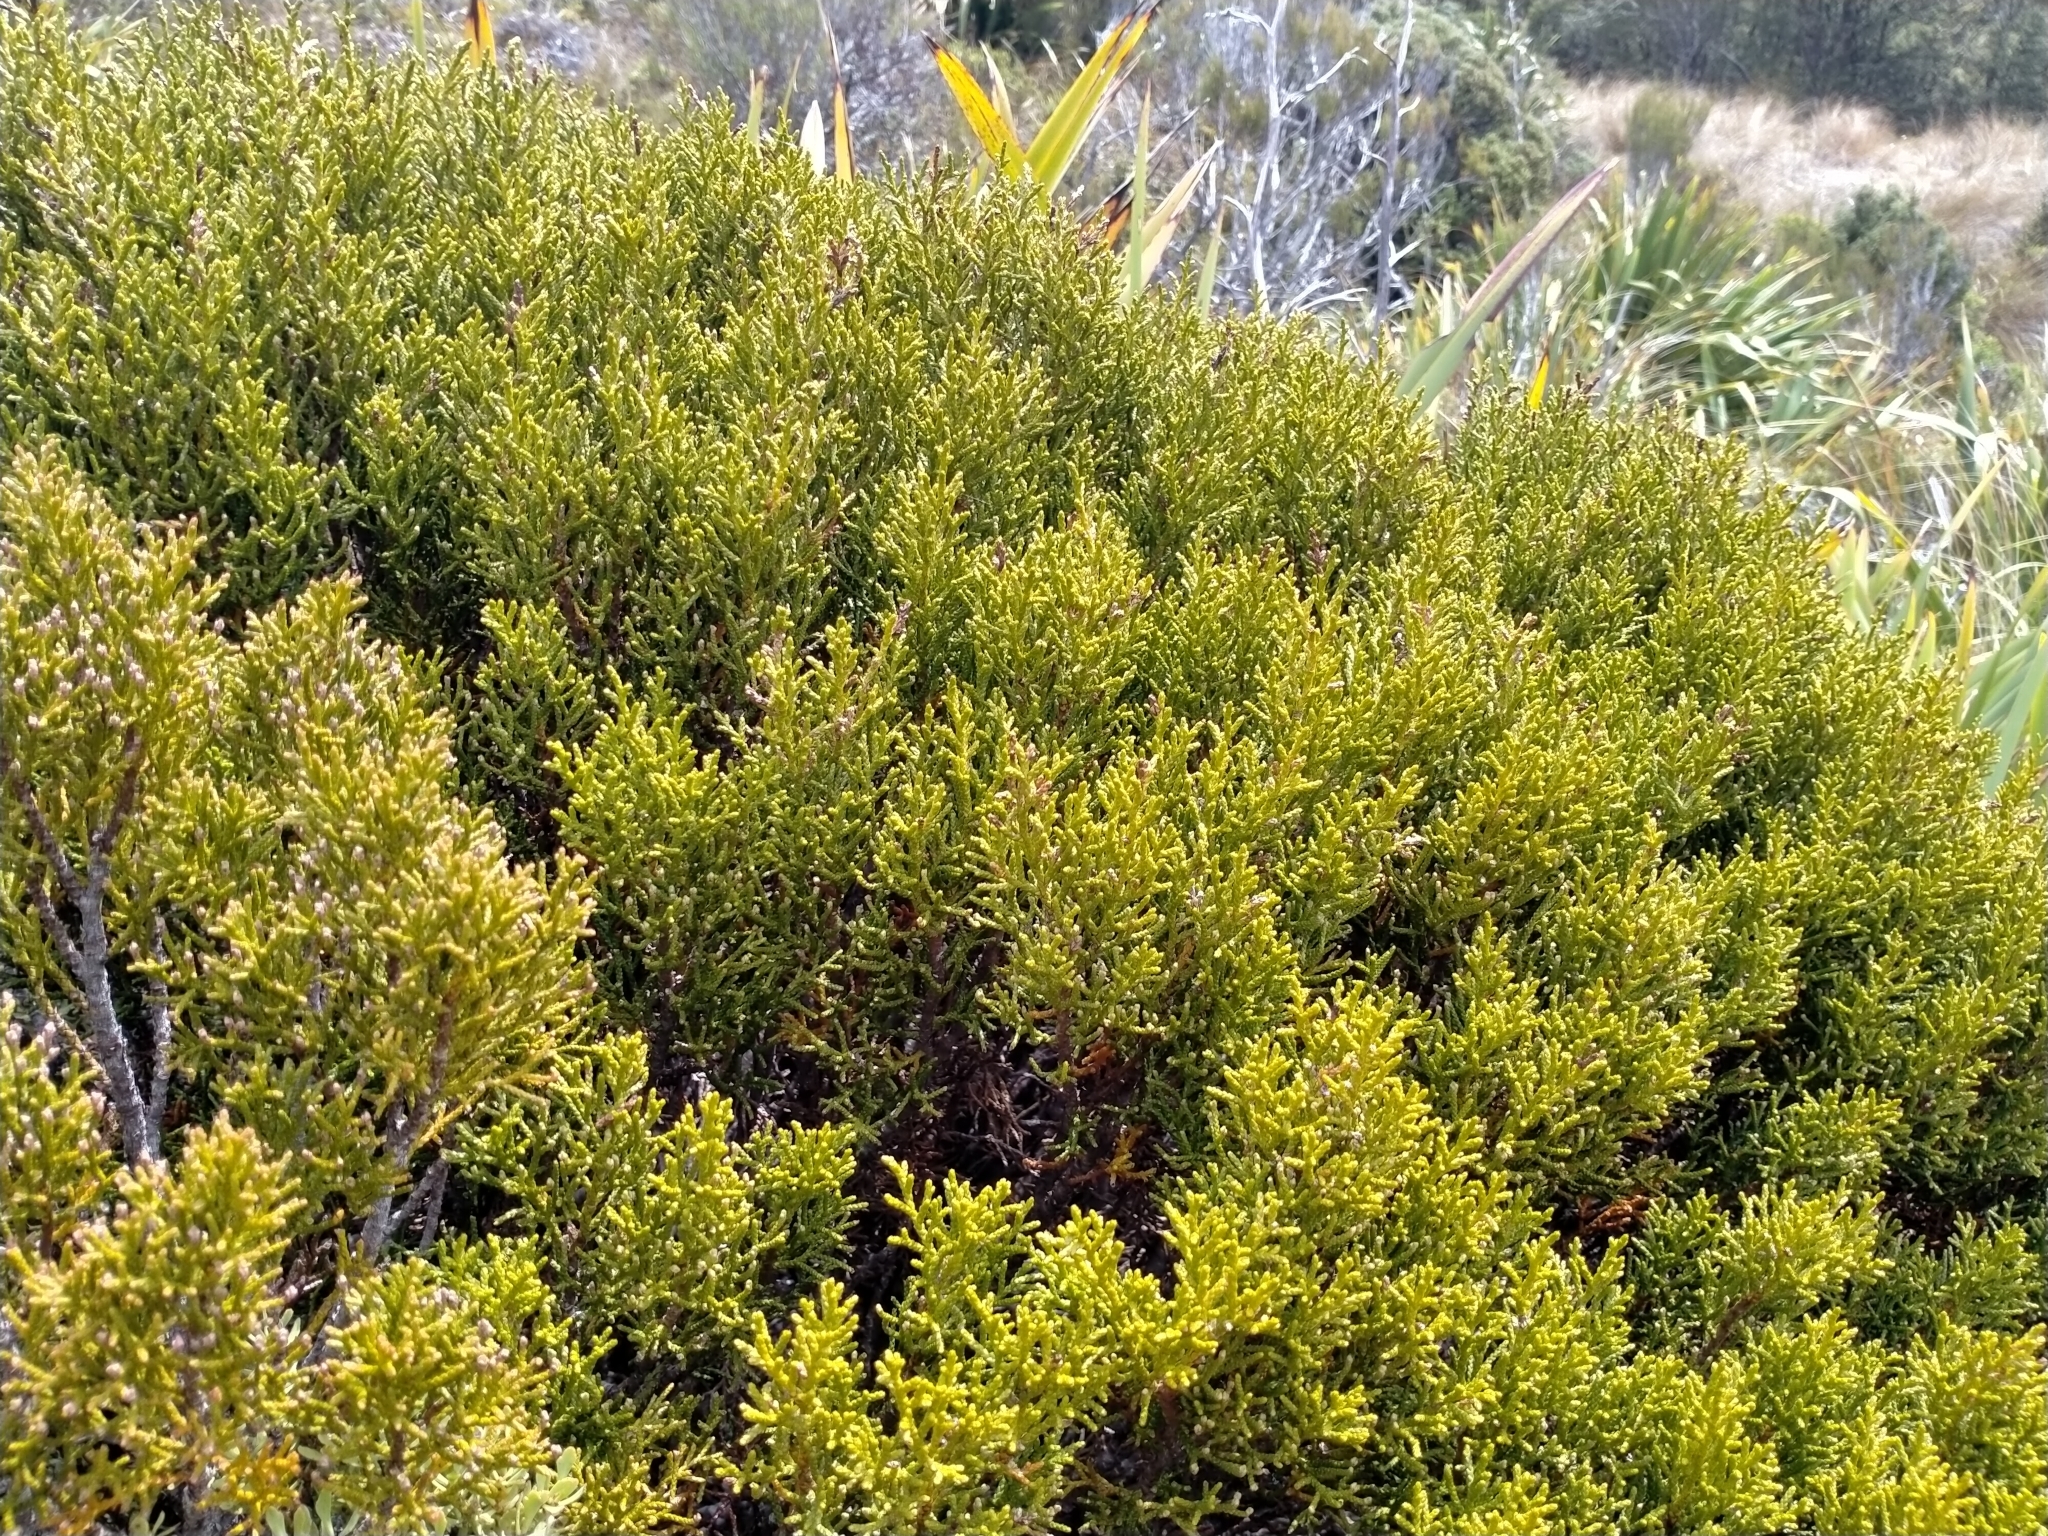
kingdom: Plantae
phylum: Tracheophyta
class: Pinopsida
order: Pinales
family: Podocarpaceae
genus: Halocarpus
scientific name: Halocarpus bidwillii
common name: Bog pine
